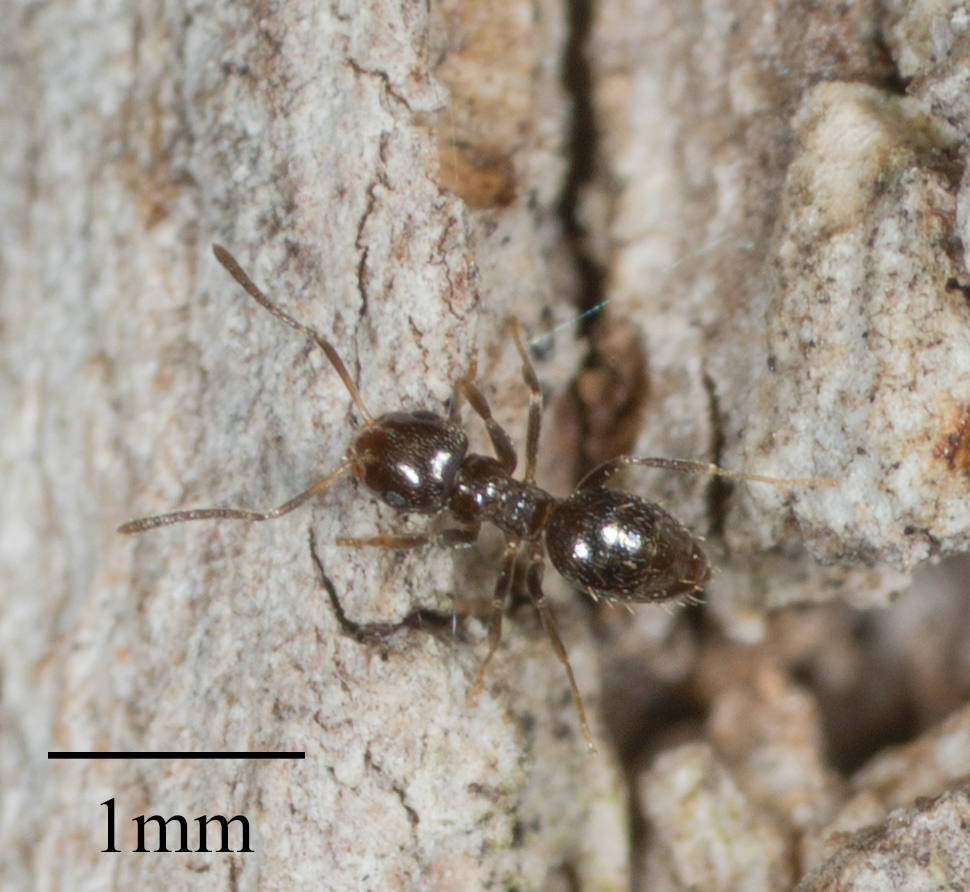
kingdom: Animalia
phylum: Arthropoda
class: Insecta
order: Hymenoptera
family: Formicidae
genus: Brachymyrmex
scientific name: Brachymyrmex patagonicus
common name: Dark rover ant
